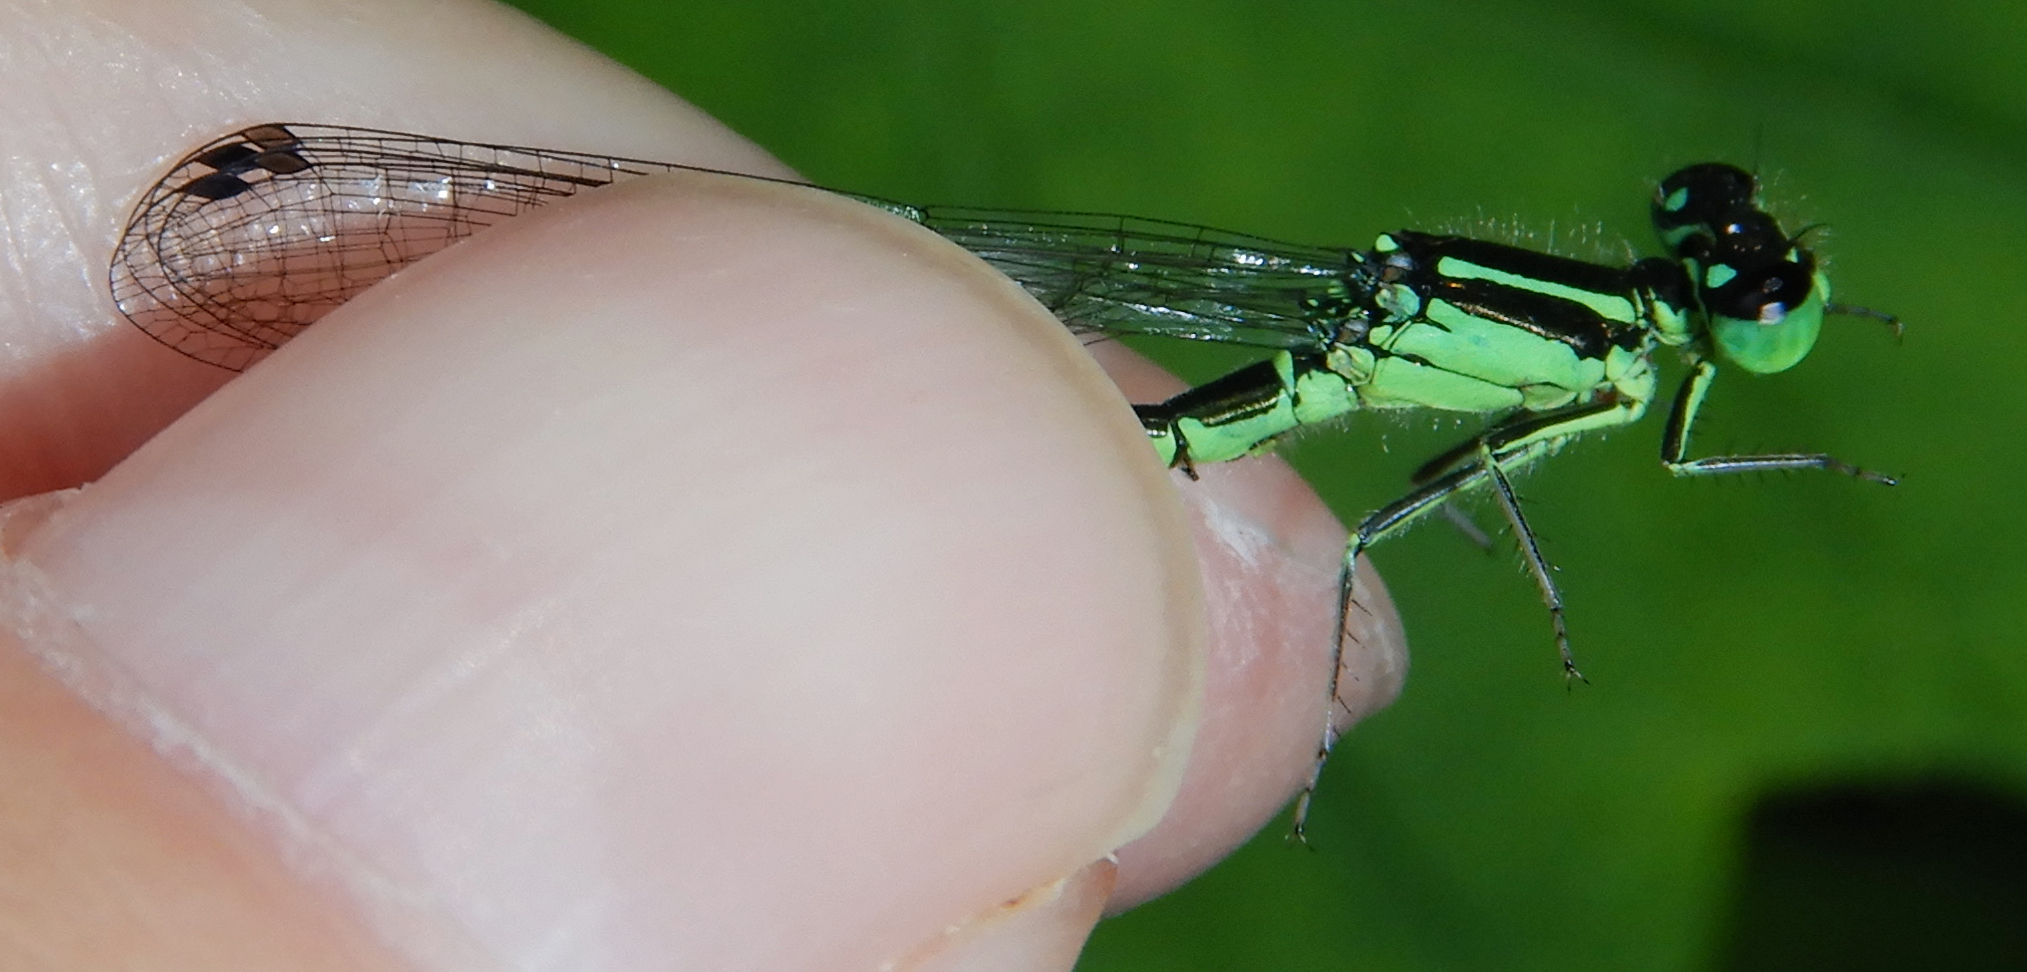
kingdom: Animalia
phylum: Arthropoda
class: Insecta
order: Odonata
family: Coenagrionidae
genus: Ischnura
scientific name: Ischnura verticalis
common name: Eastern forktail
